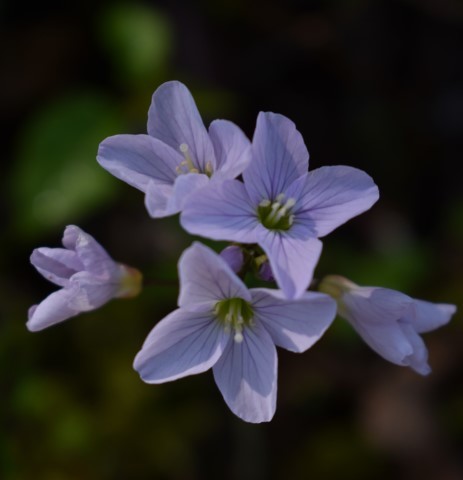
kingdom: Plantae
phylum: Tracheophyta
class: Magnoliopsida
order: Brassicales
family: Brassicaceae
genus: Cardamine
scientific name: Cardamine nuttallii
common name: Nuttall's toothwort
